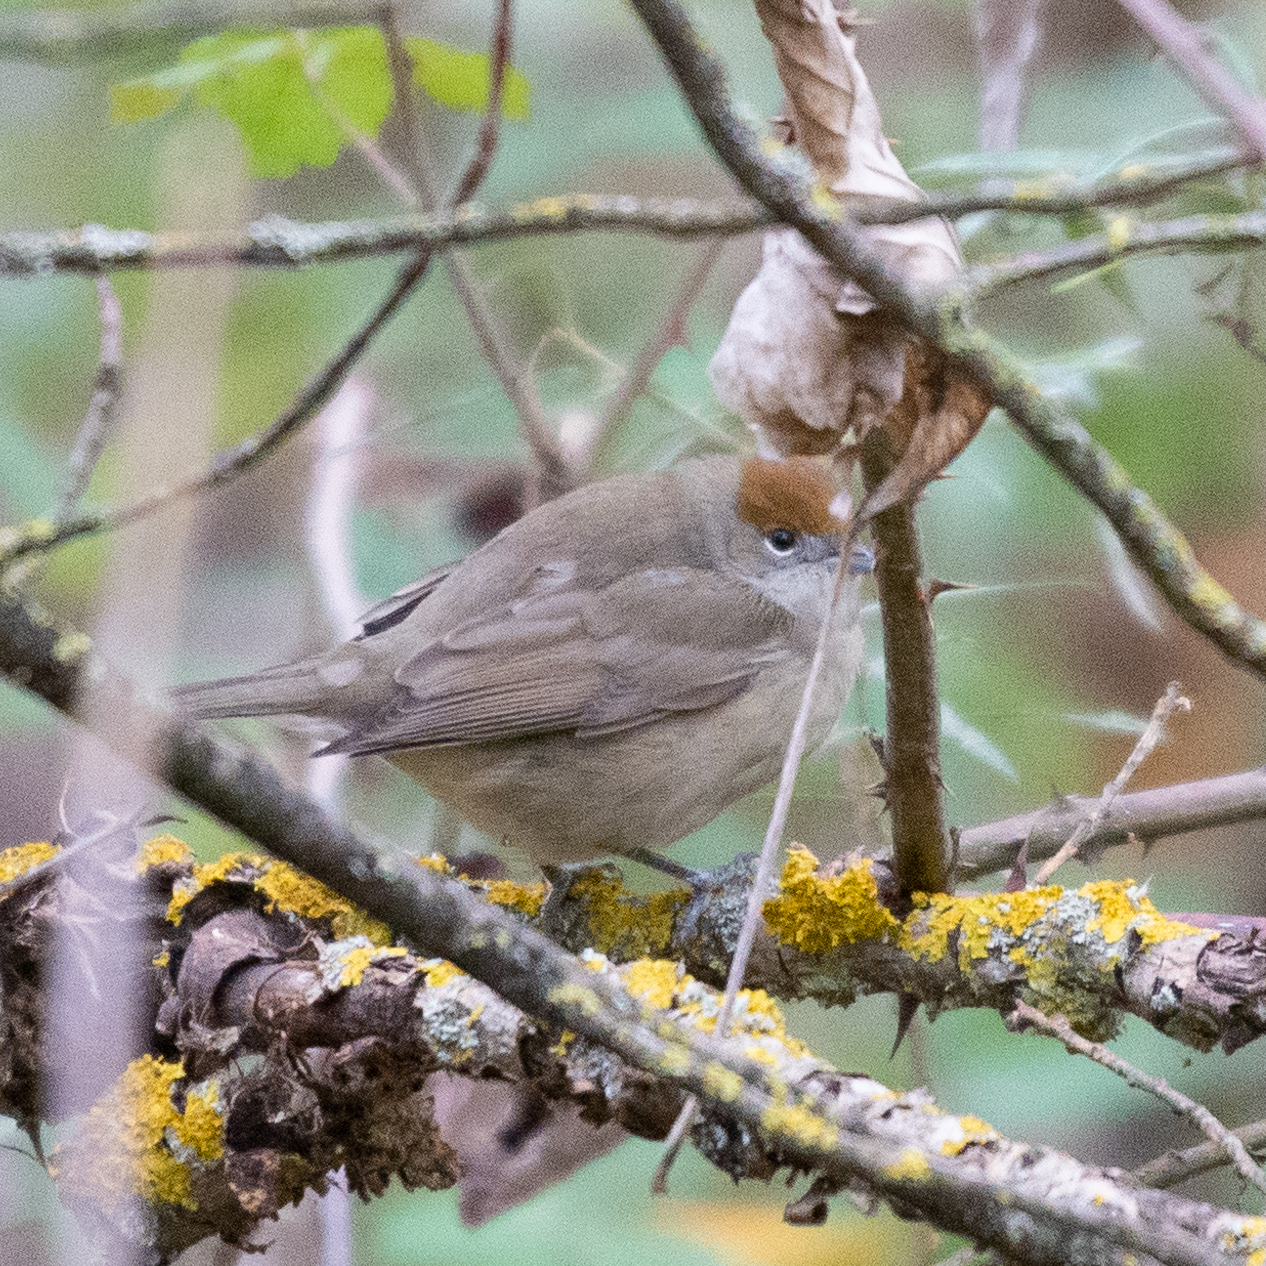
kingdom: Animalia
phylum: Chordata
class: Aves
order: Passeriformes
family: Sylviidae
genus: Sylvia
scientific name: Sylvia atricapilla
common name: Eurasian blackcap
